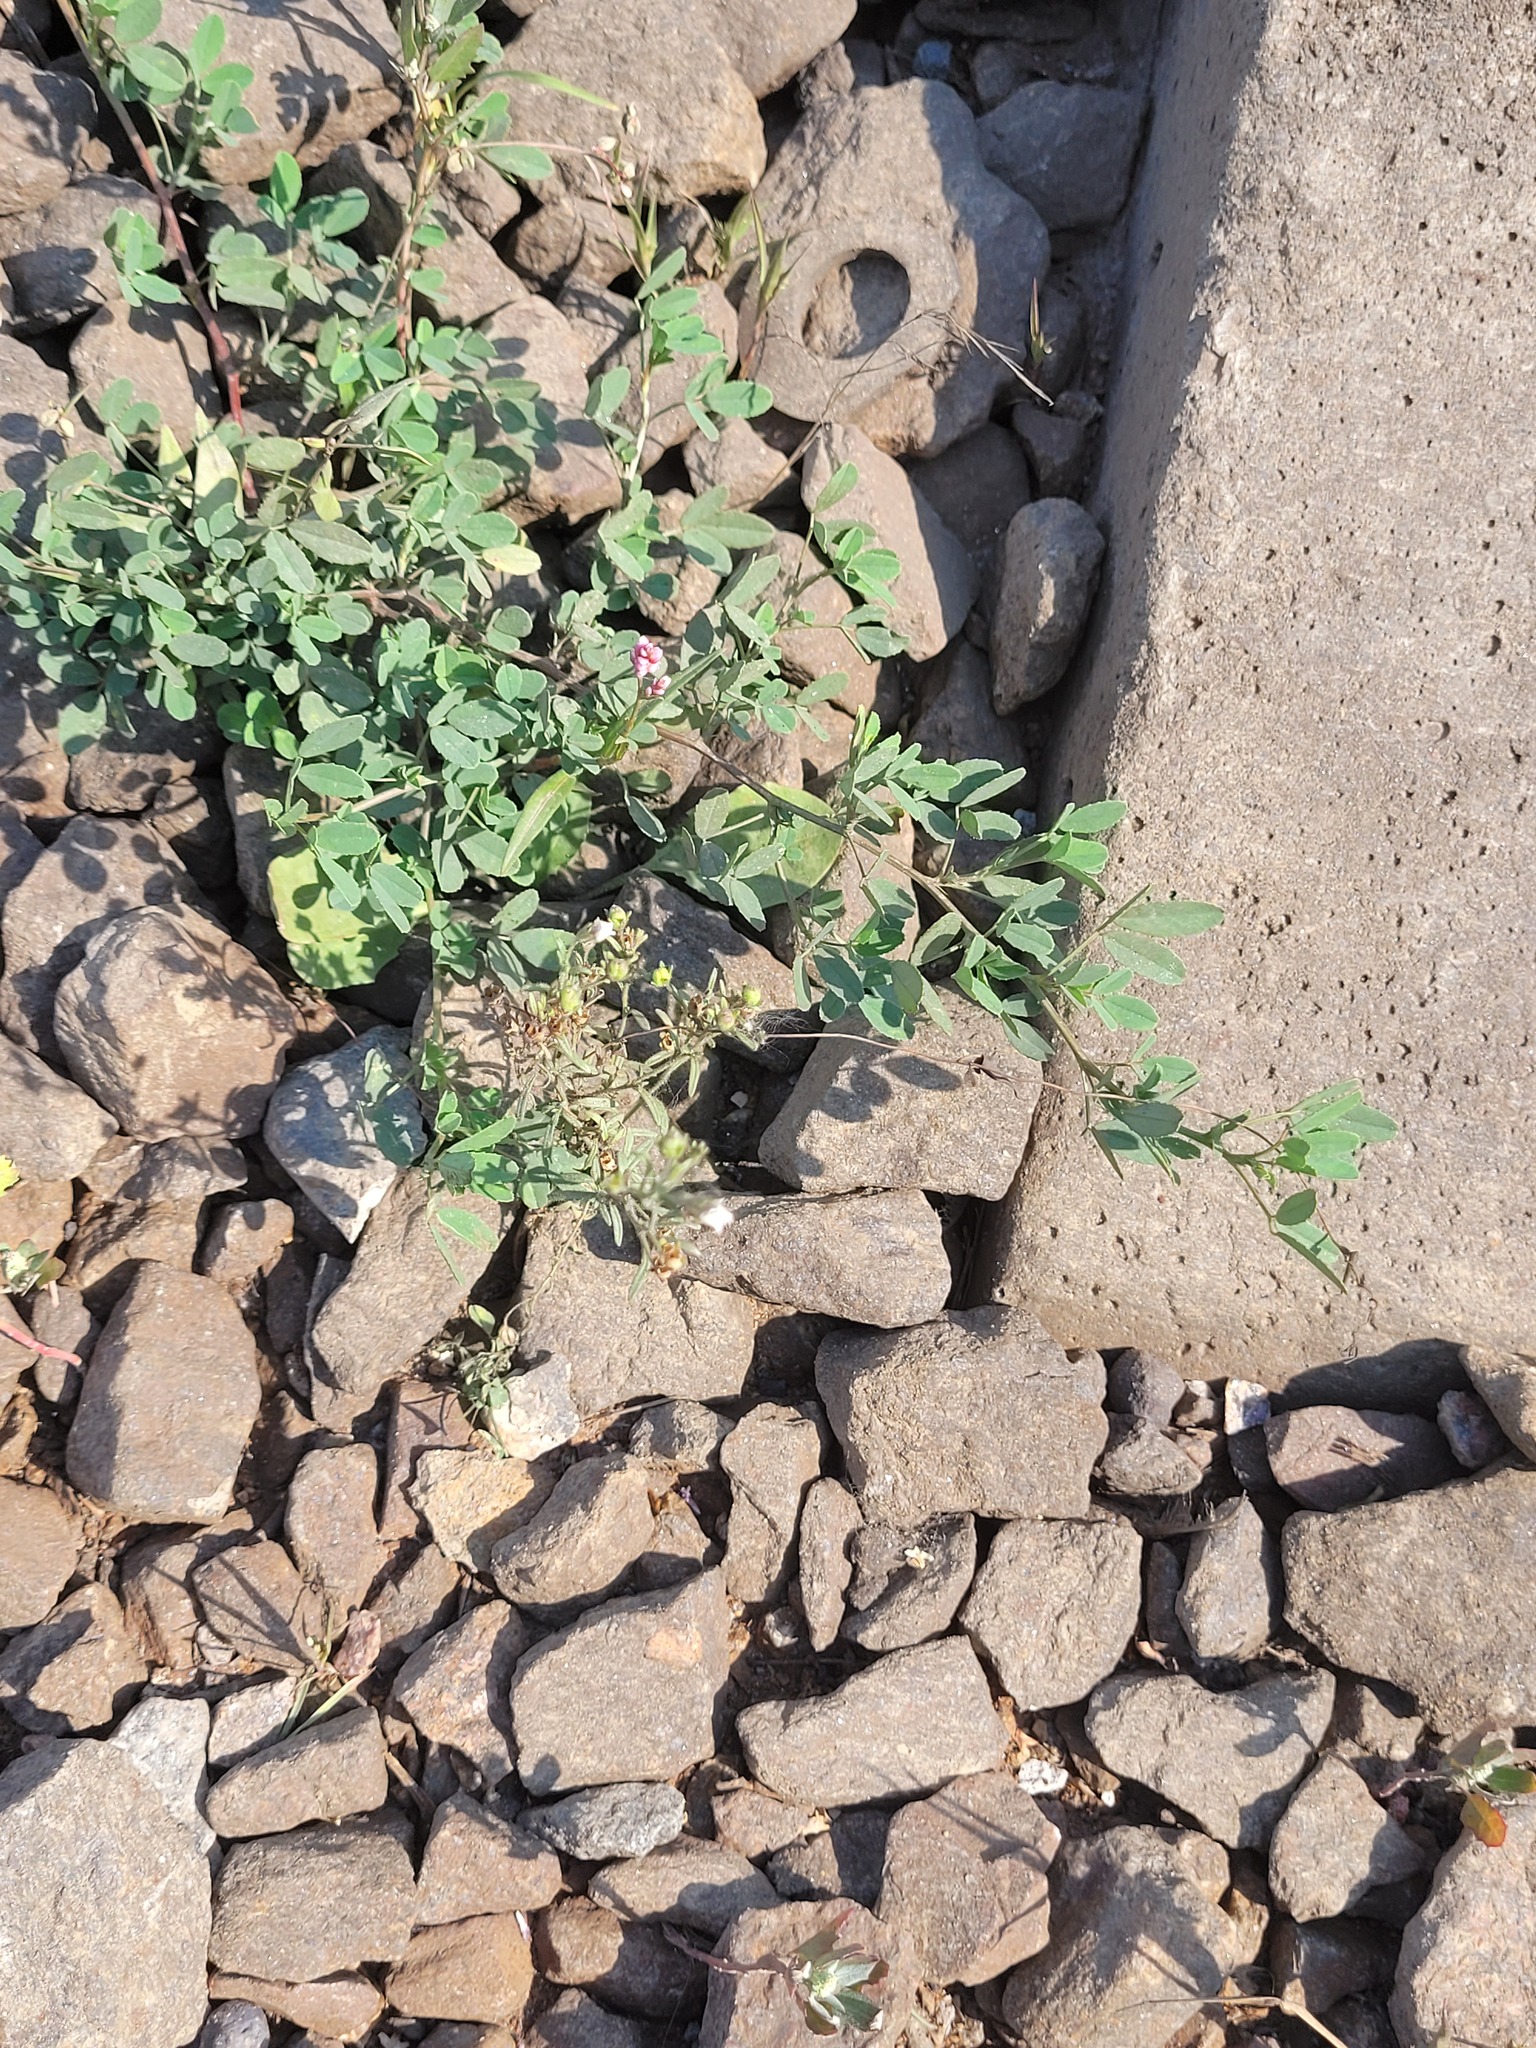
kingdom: Plantae
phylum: Tracheophyta
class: Magnoliopsida
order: Lamiales
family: Plantaginaceae
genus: Chaenorhinum
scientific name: Chaenorhinum minus
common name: Dwarf snapdragon
